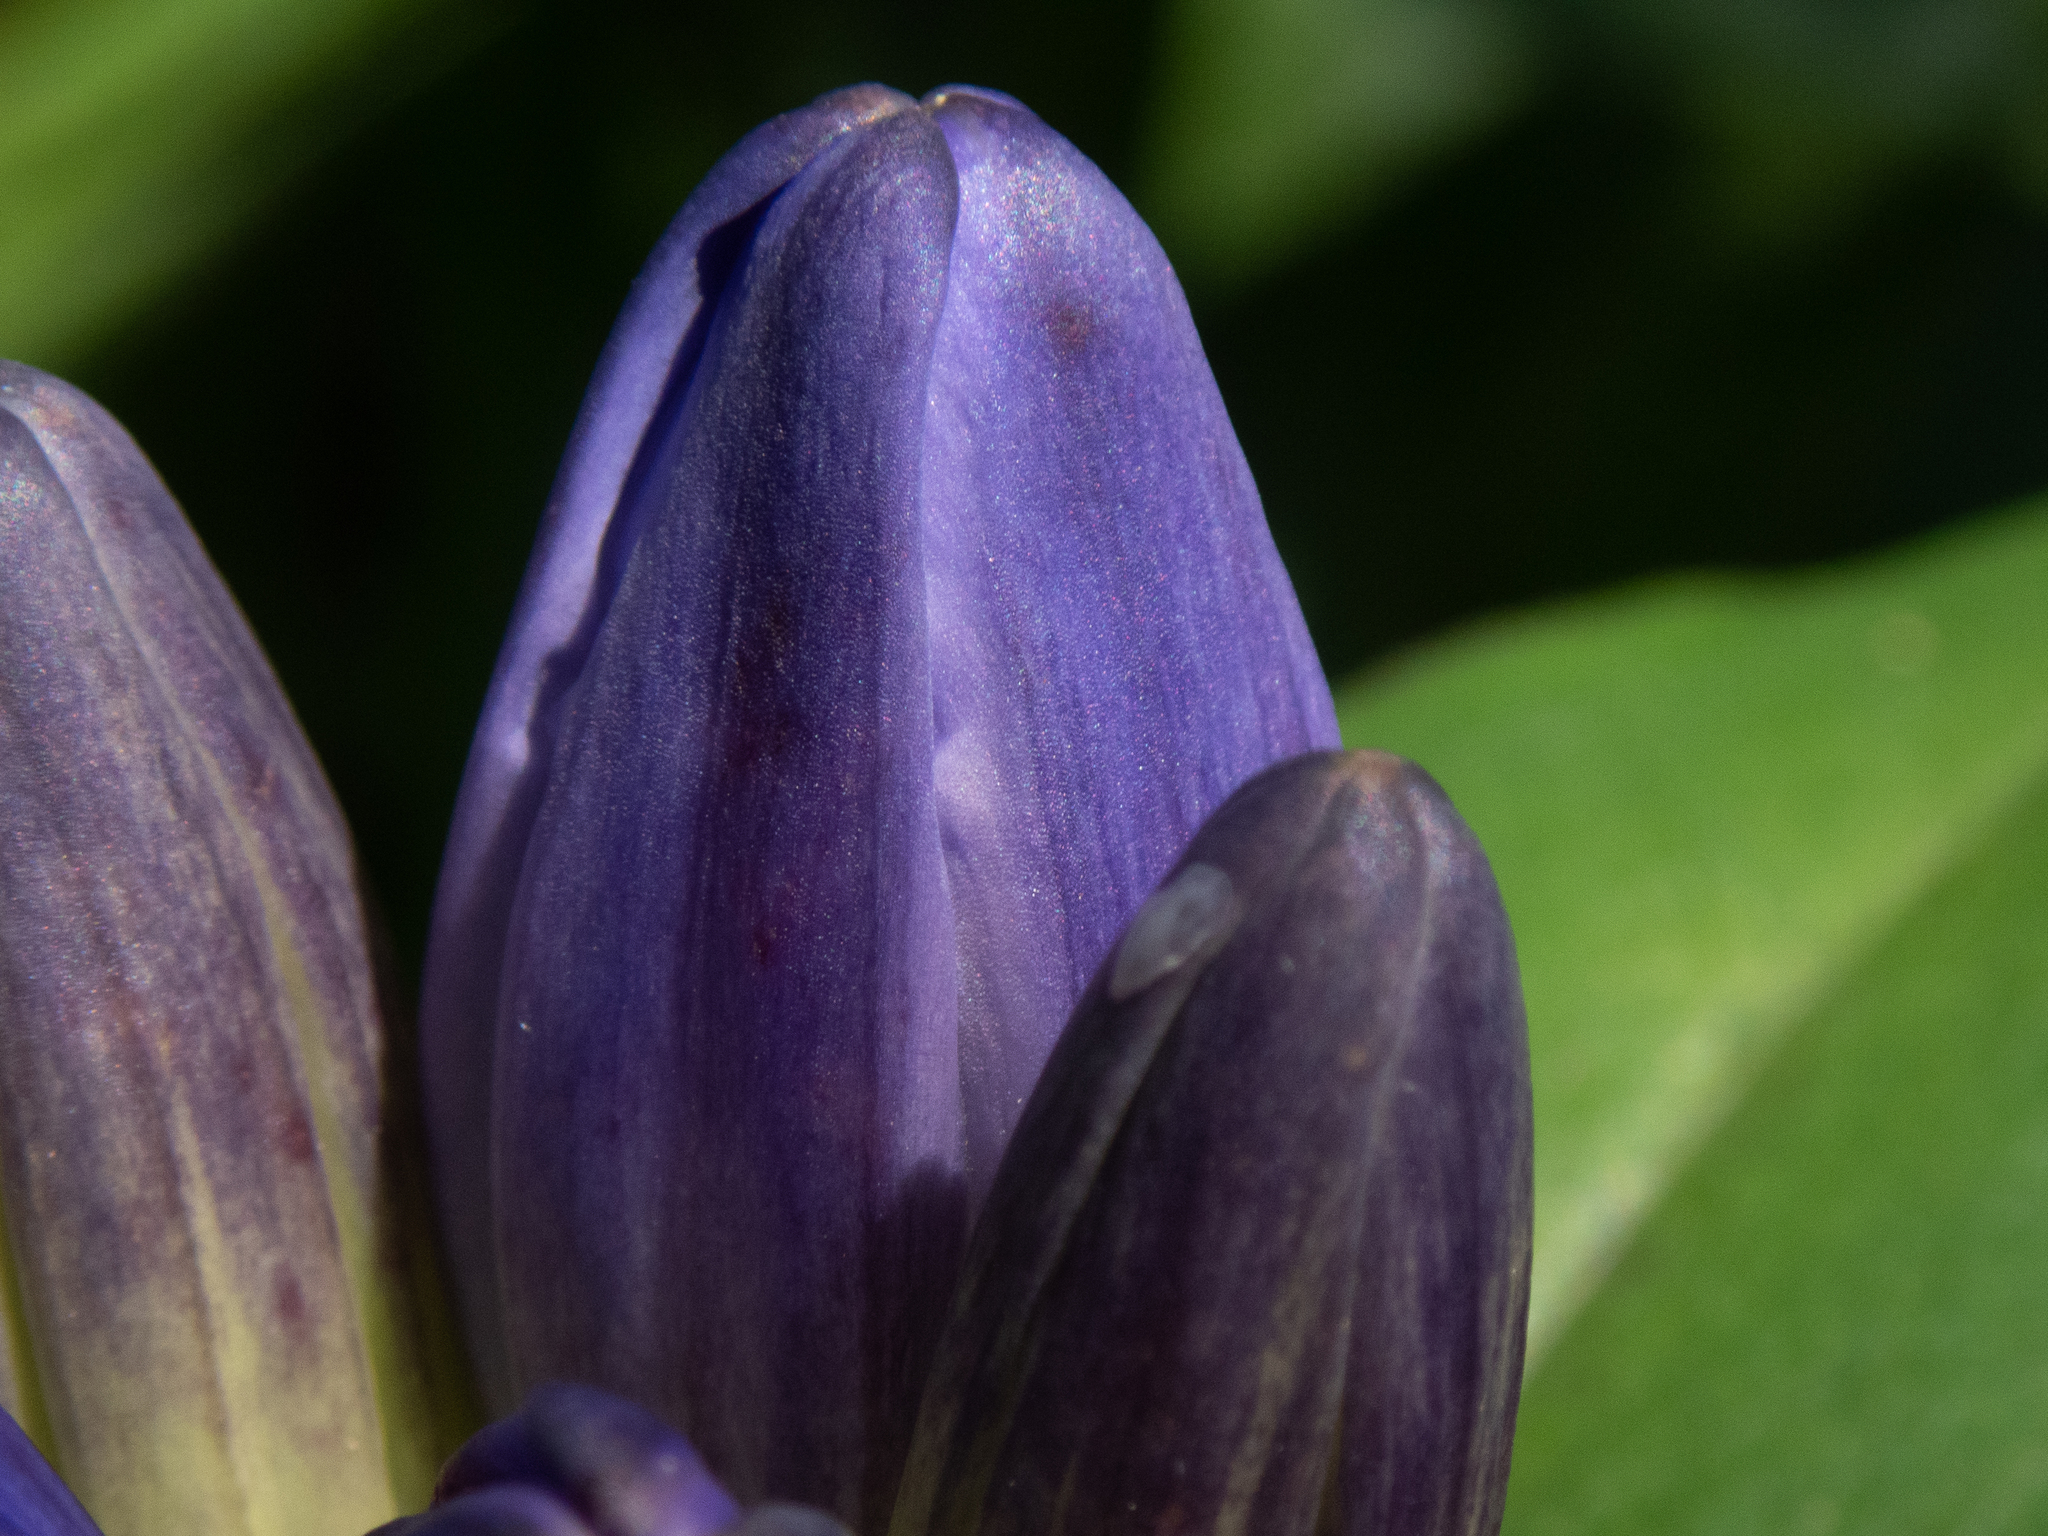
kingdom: Animalia
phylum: Arthropoda
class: Insecta
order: Lepidoptera
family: Tortricidae
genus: Endothenia
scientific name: Endothenia hebesana
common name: Verbena bud moth
